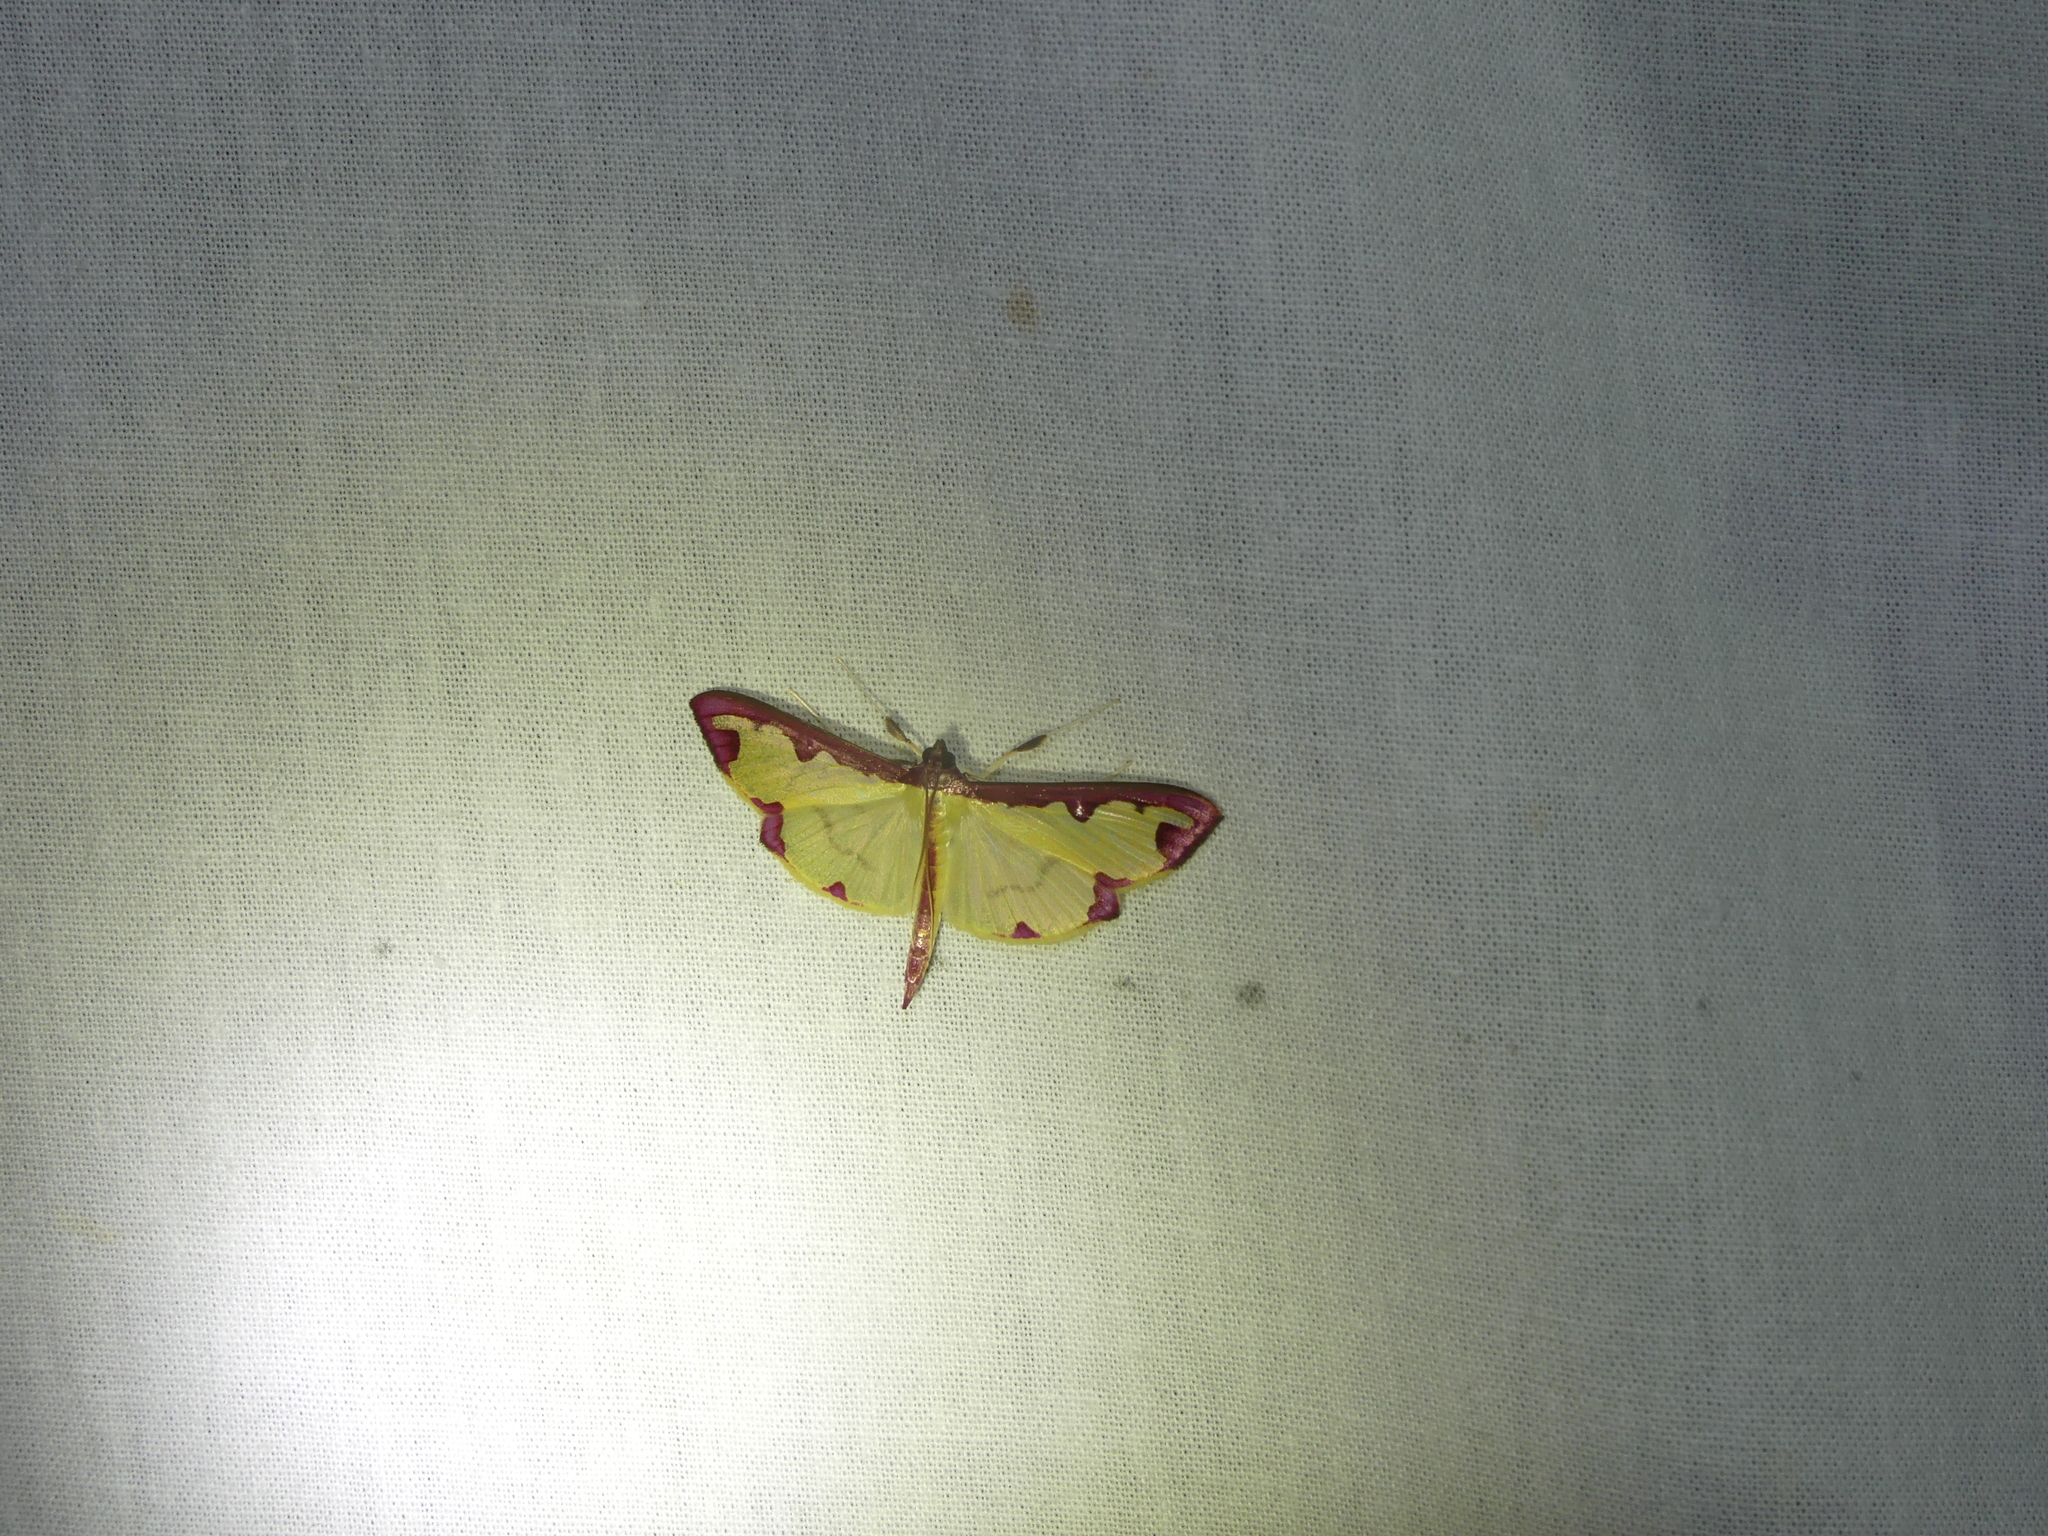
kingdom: Animalia
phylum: Arthropoda
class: Insecta
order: Lepidoptera
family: Crambidae
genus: Cadarena
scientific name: Cadarena pudoraria
